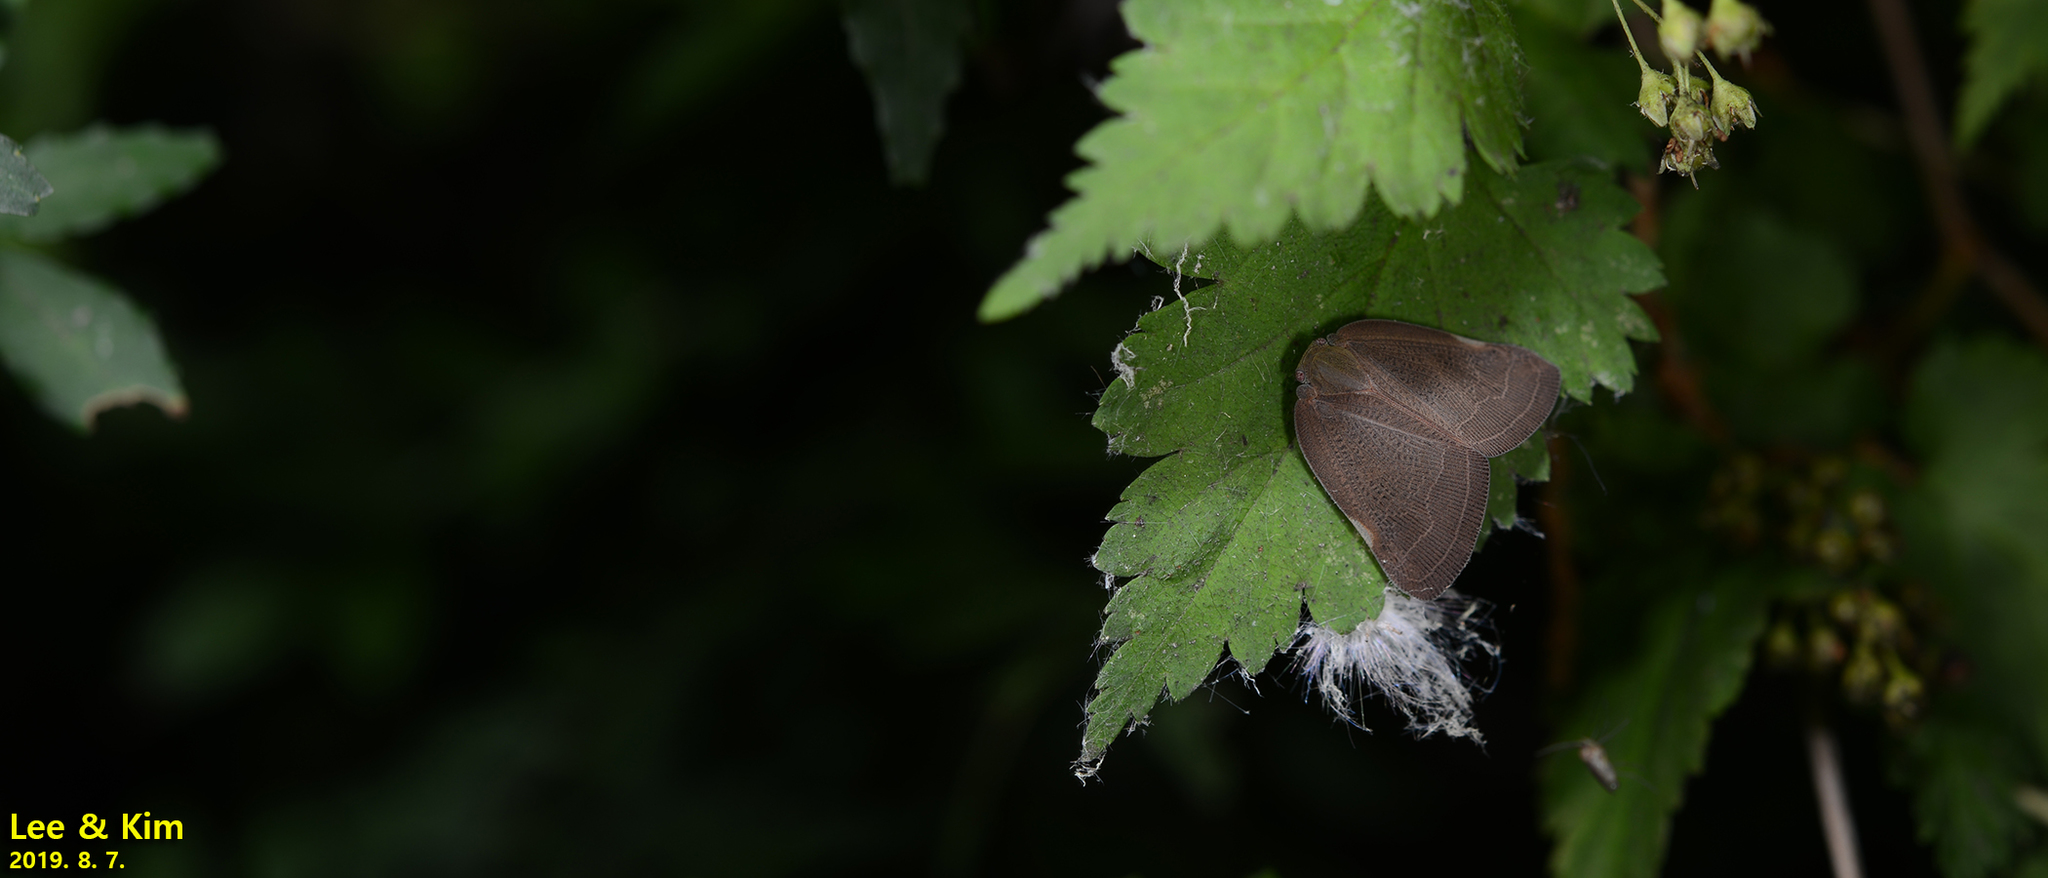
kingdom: Animalia
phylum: Arthropoda
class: Insecta
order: Hemiptera
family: Ricaniidae
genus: Ricanula
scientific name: Ricanula sublimata
